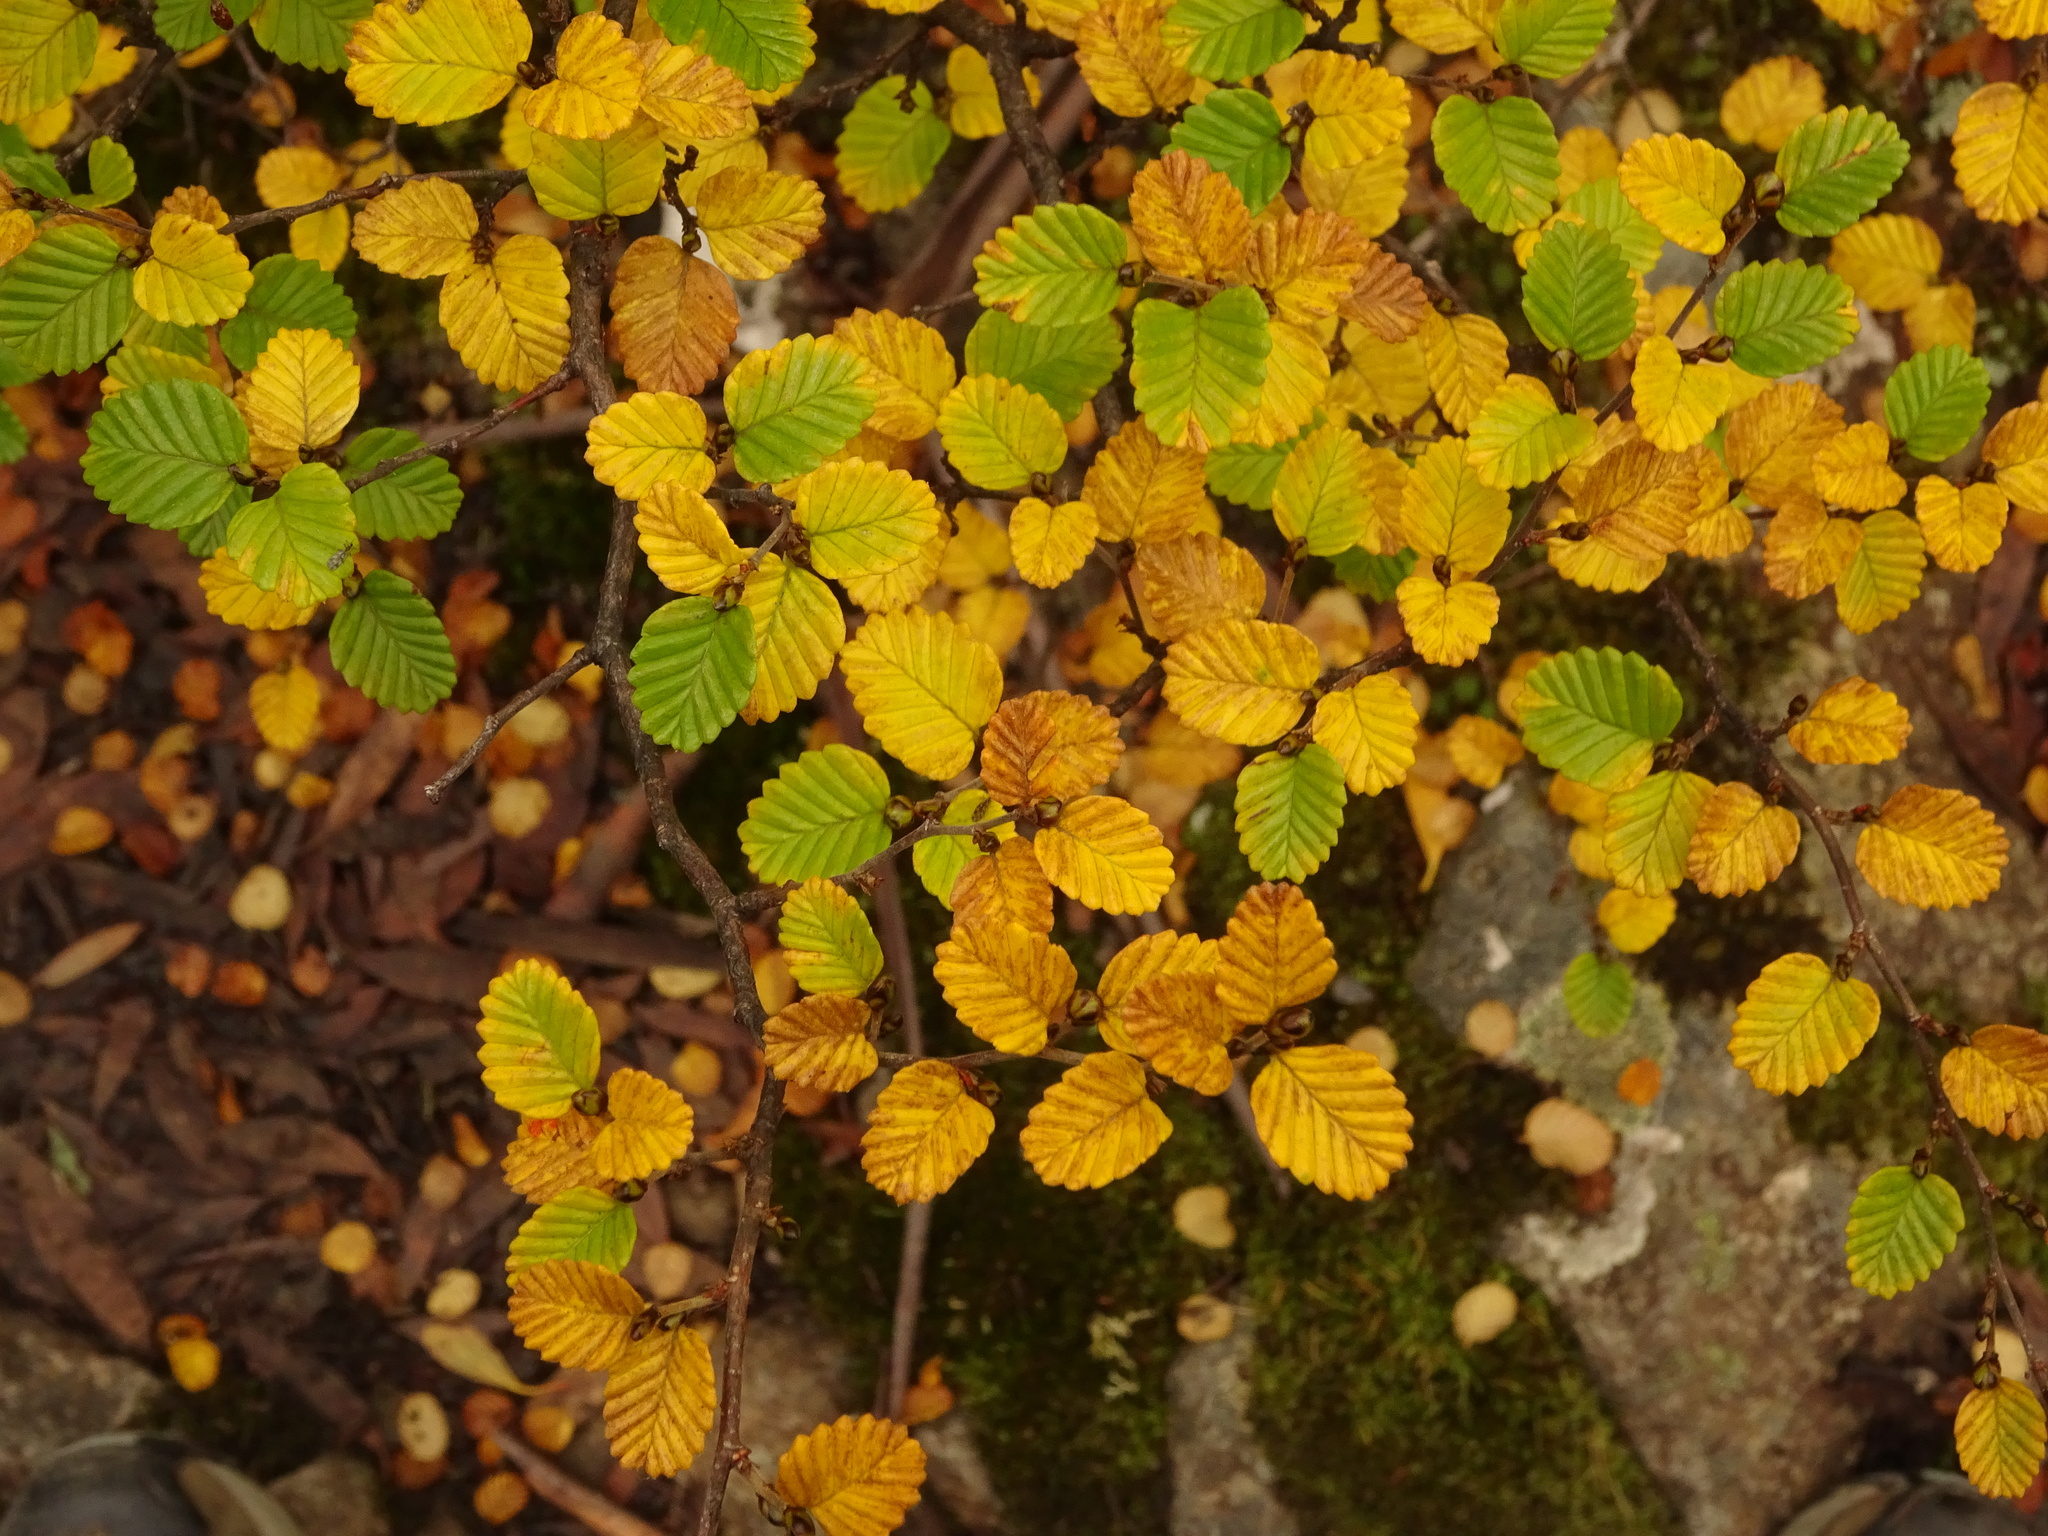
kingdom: Plantae
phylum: Tracheophyta
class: Magnoliopsida
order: Fagales
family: Nothofagaceae
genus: Nothofagus
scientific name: Nothofagus gunnii
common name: Tanglefoot
